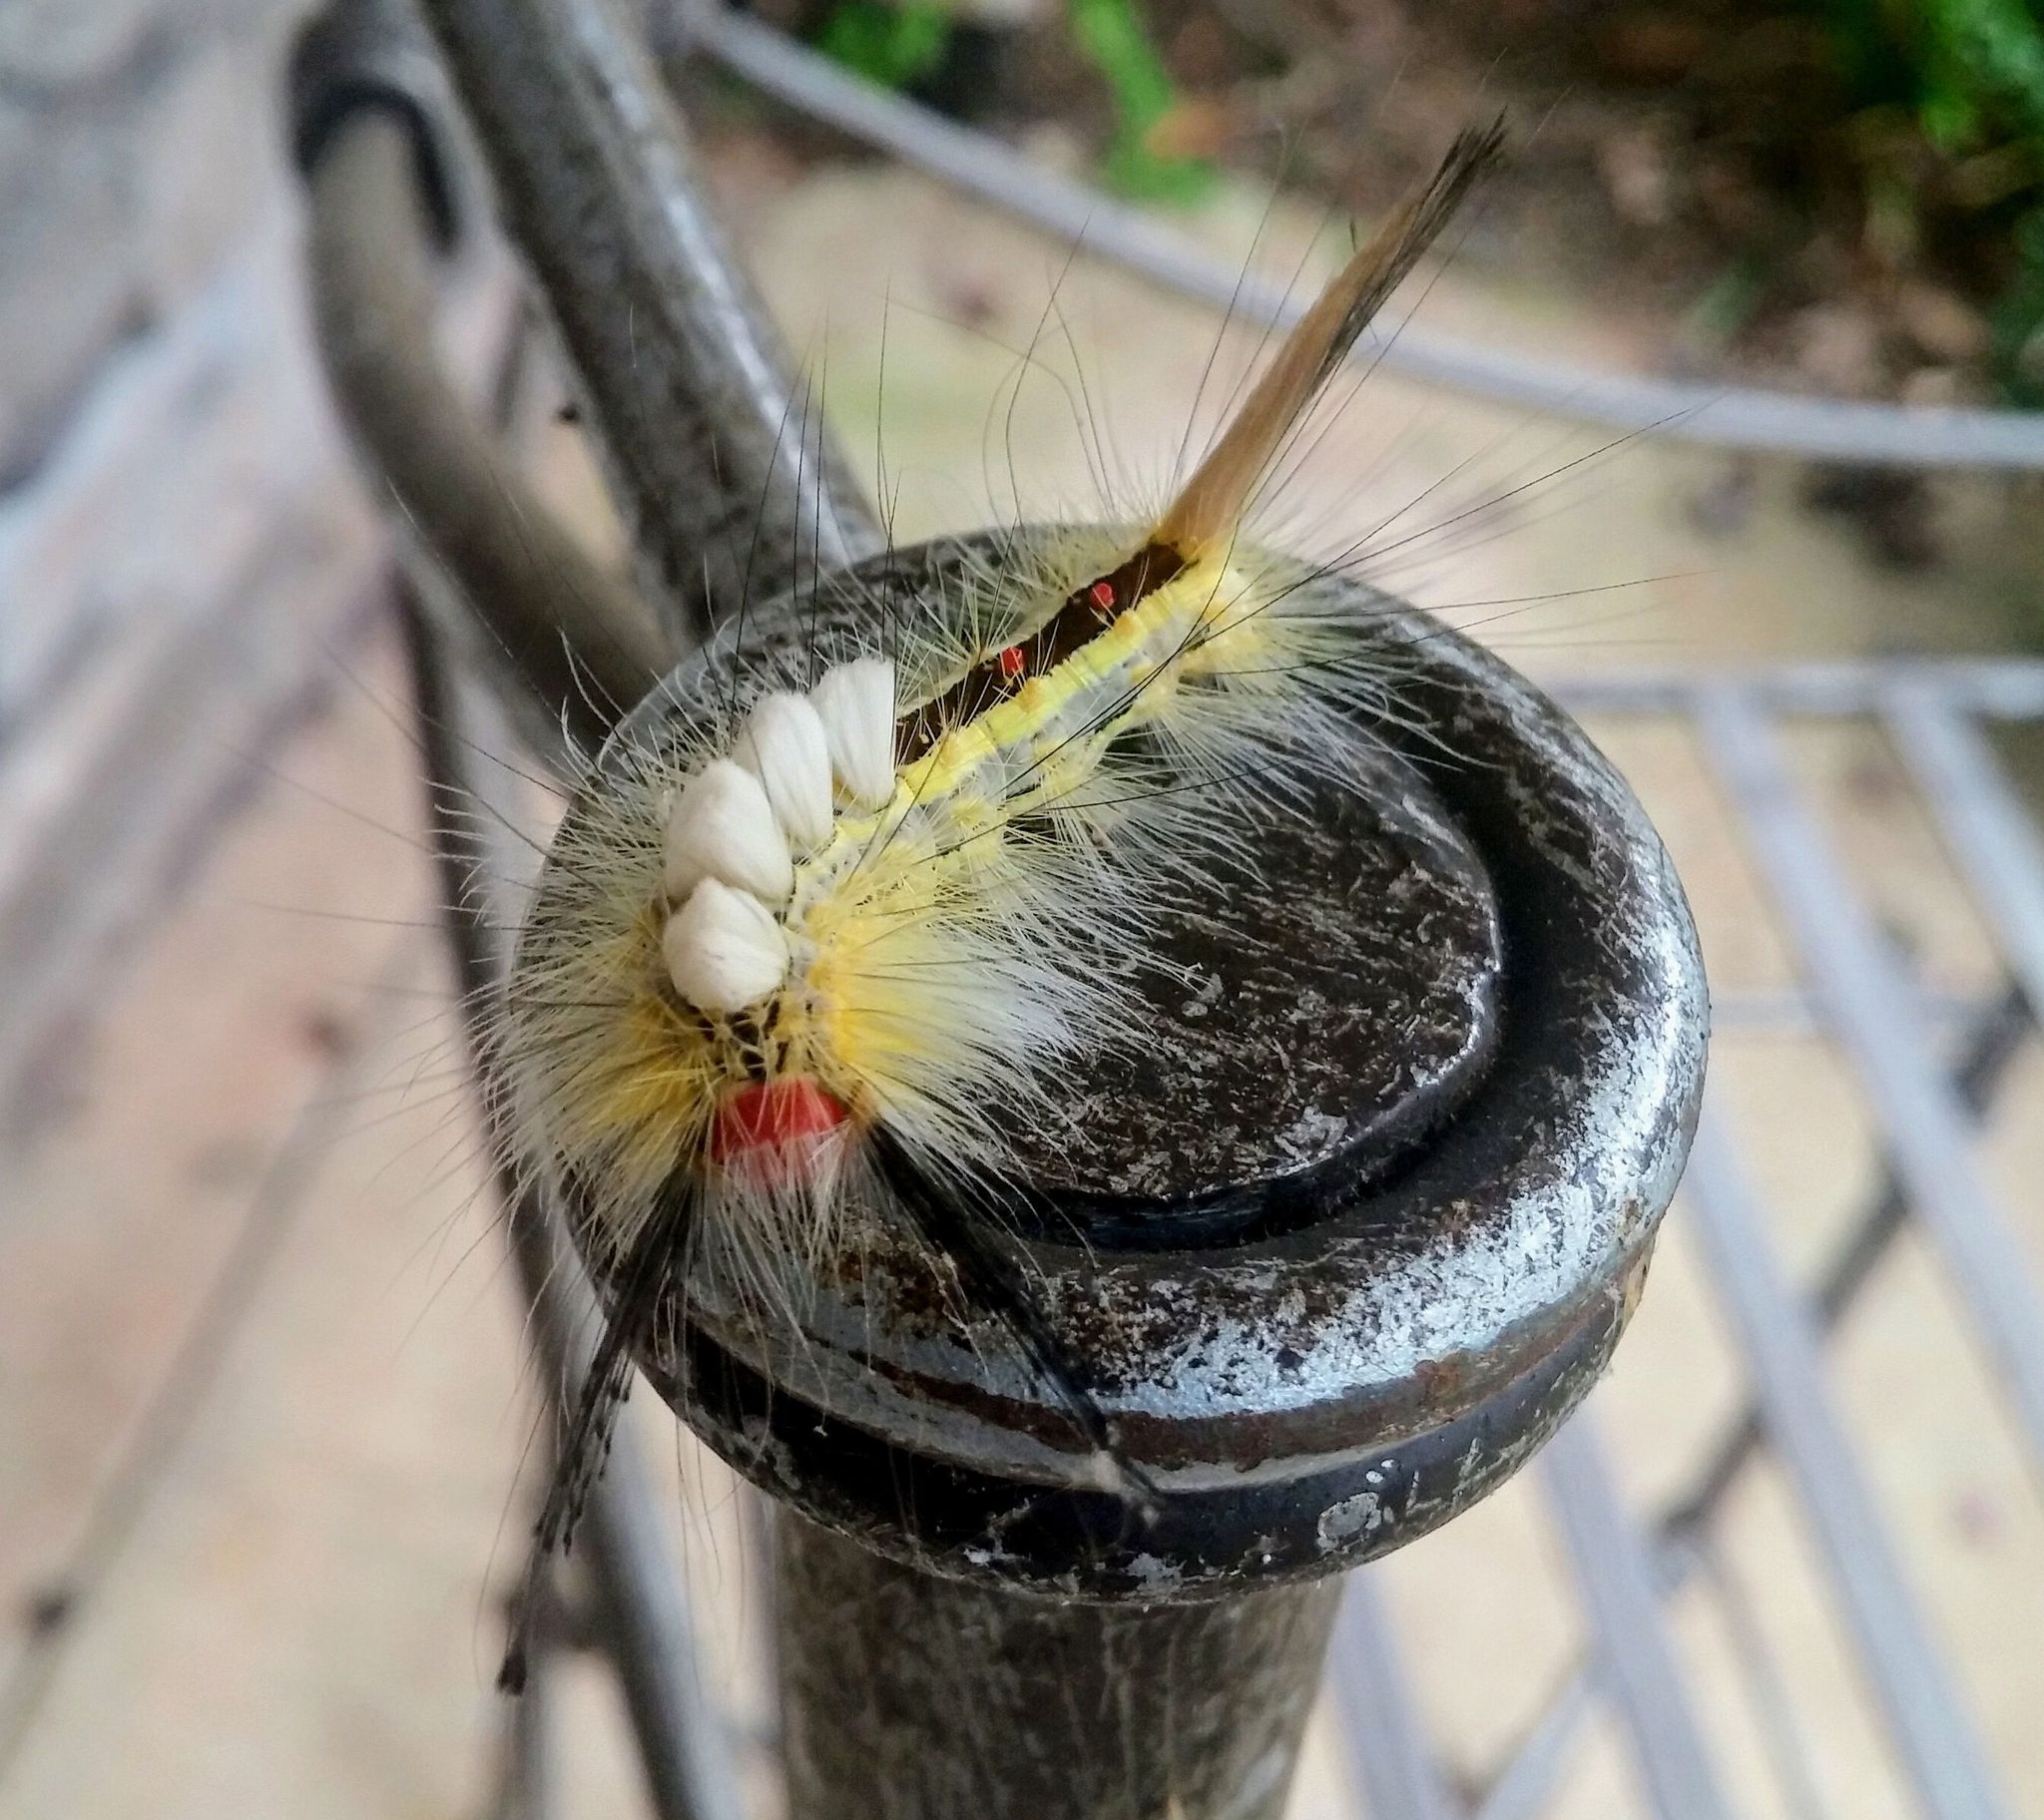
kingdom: Animalia
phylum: Arthropoda
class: Insecta
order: Lepidoptera
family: Erebidae
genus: Orgyia
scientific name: Orgyia leucostigma
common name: White-marked tussock moth
